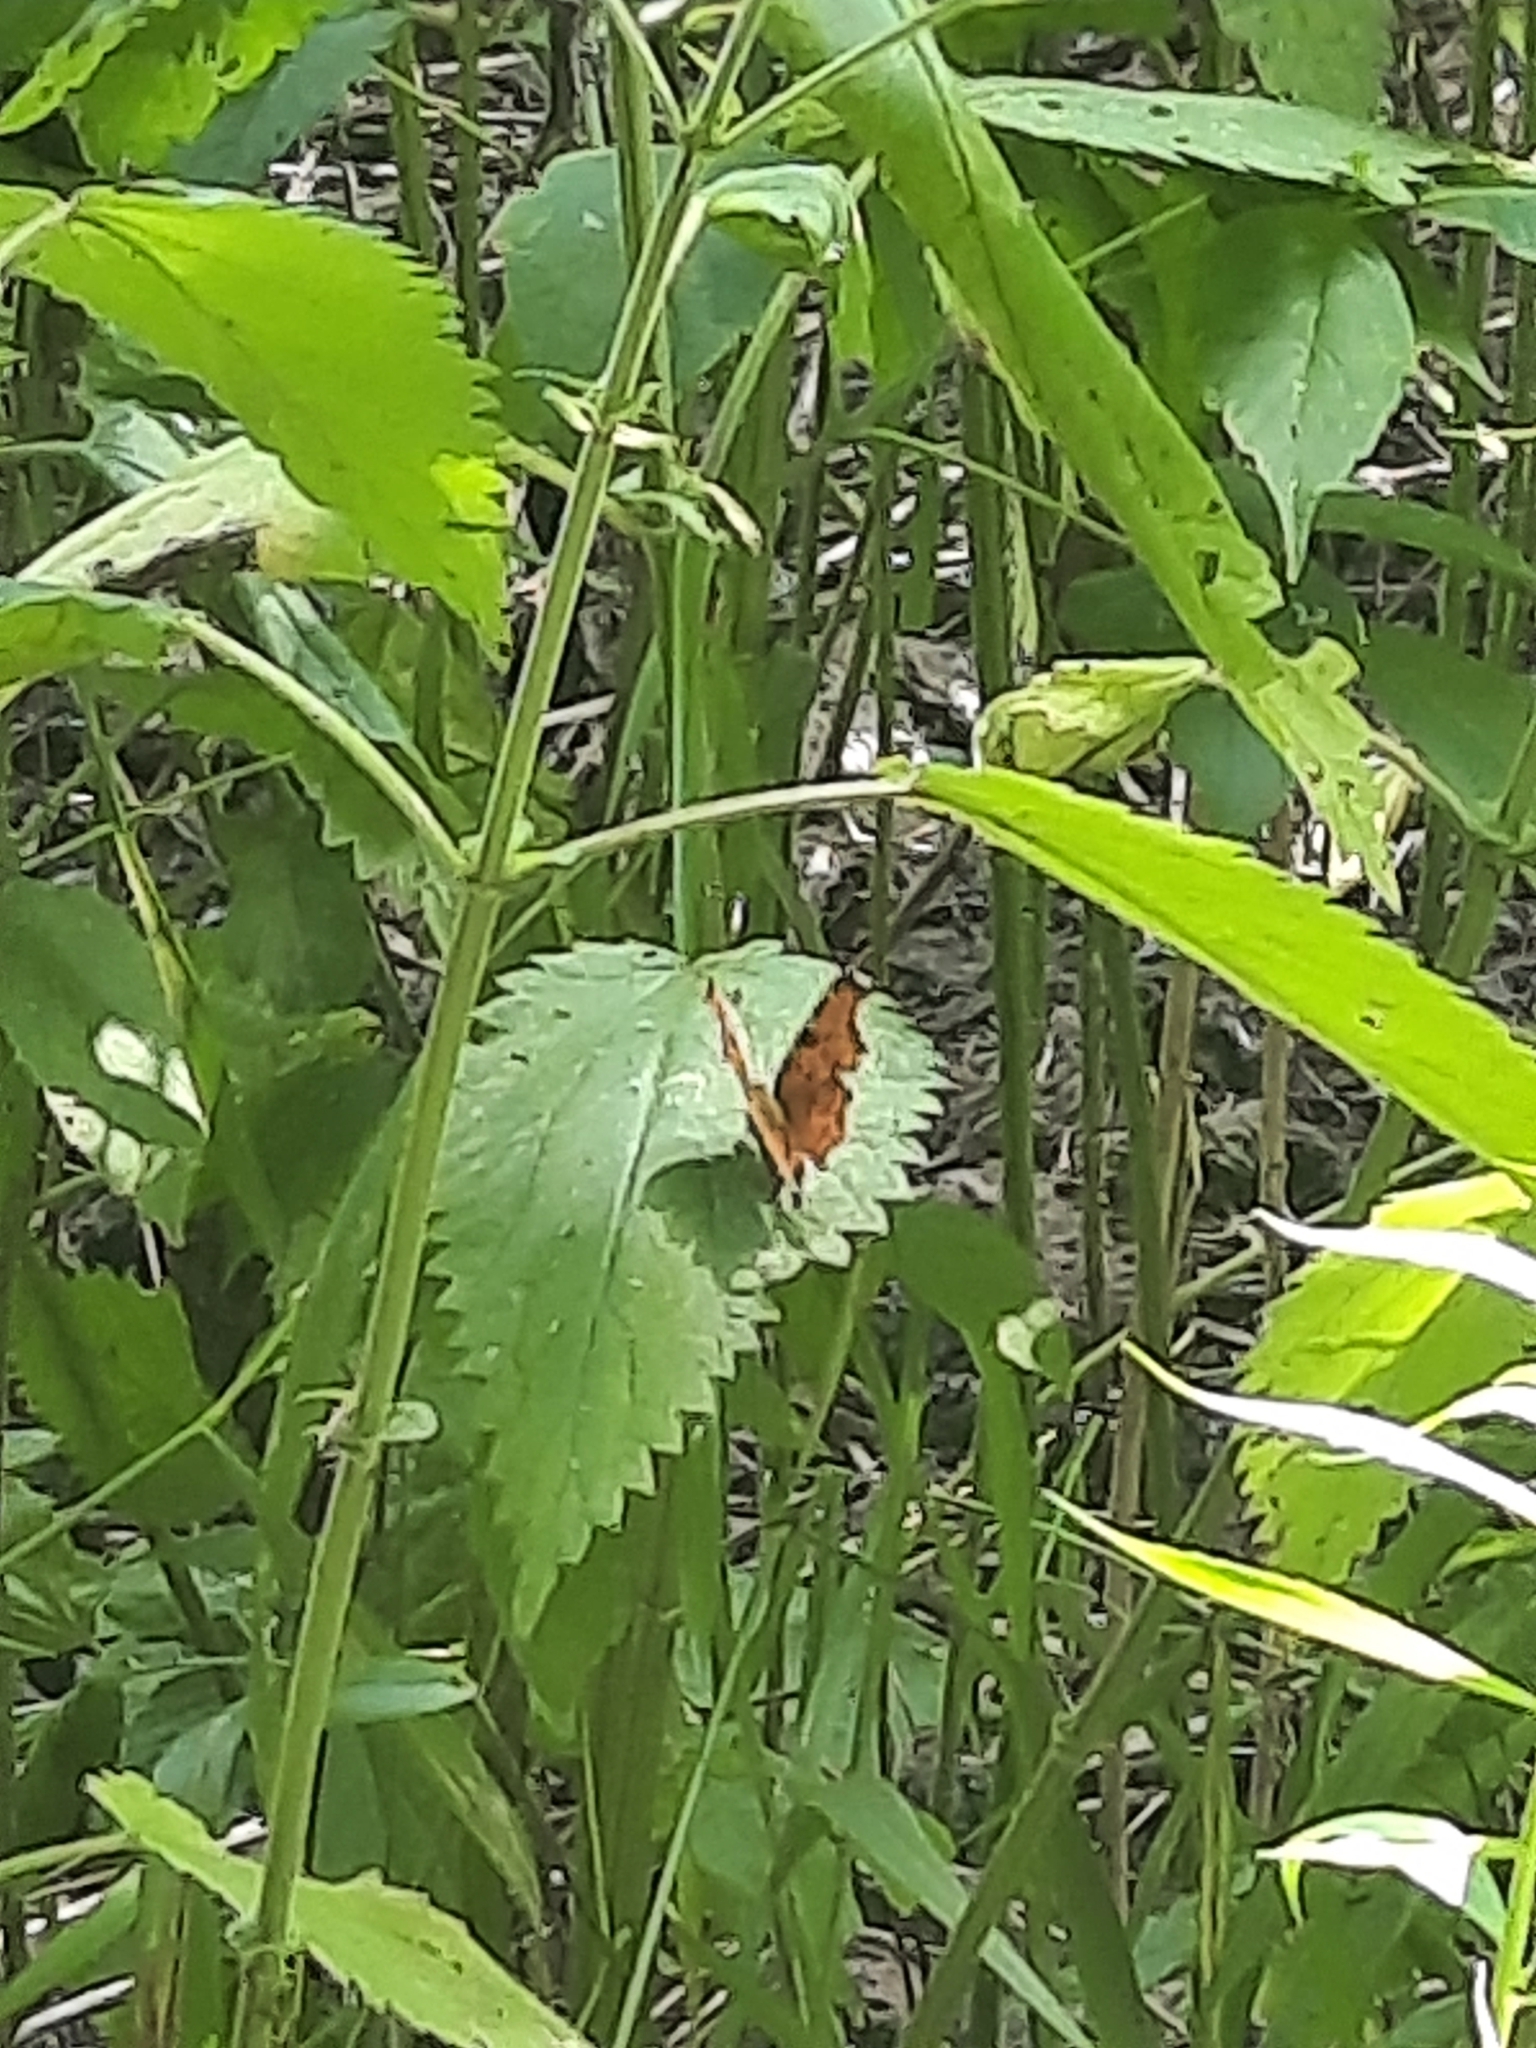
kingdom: Animalia
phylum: Arthropoda
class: Insecta
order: Lepidoptera
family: Nymphalidae
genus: Polygonia
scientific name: Polygonia c-album
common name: Comma
